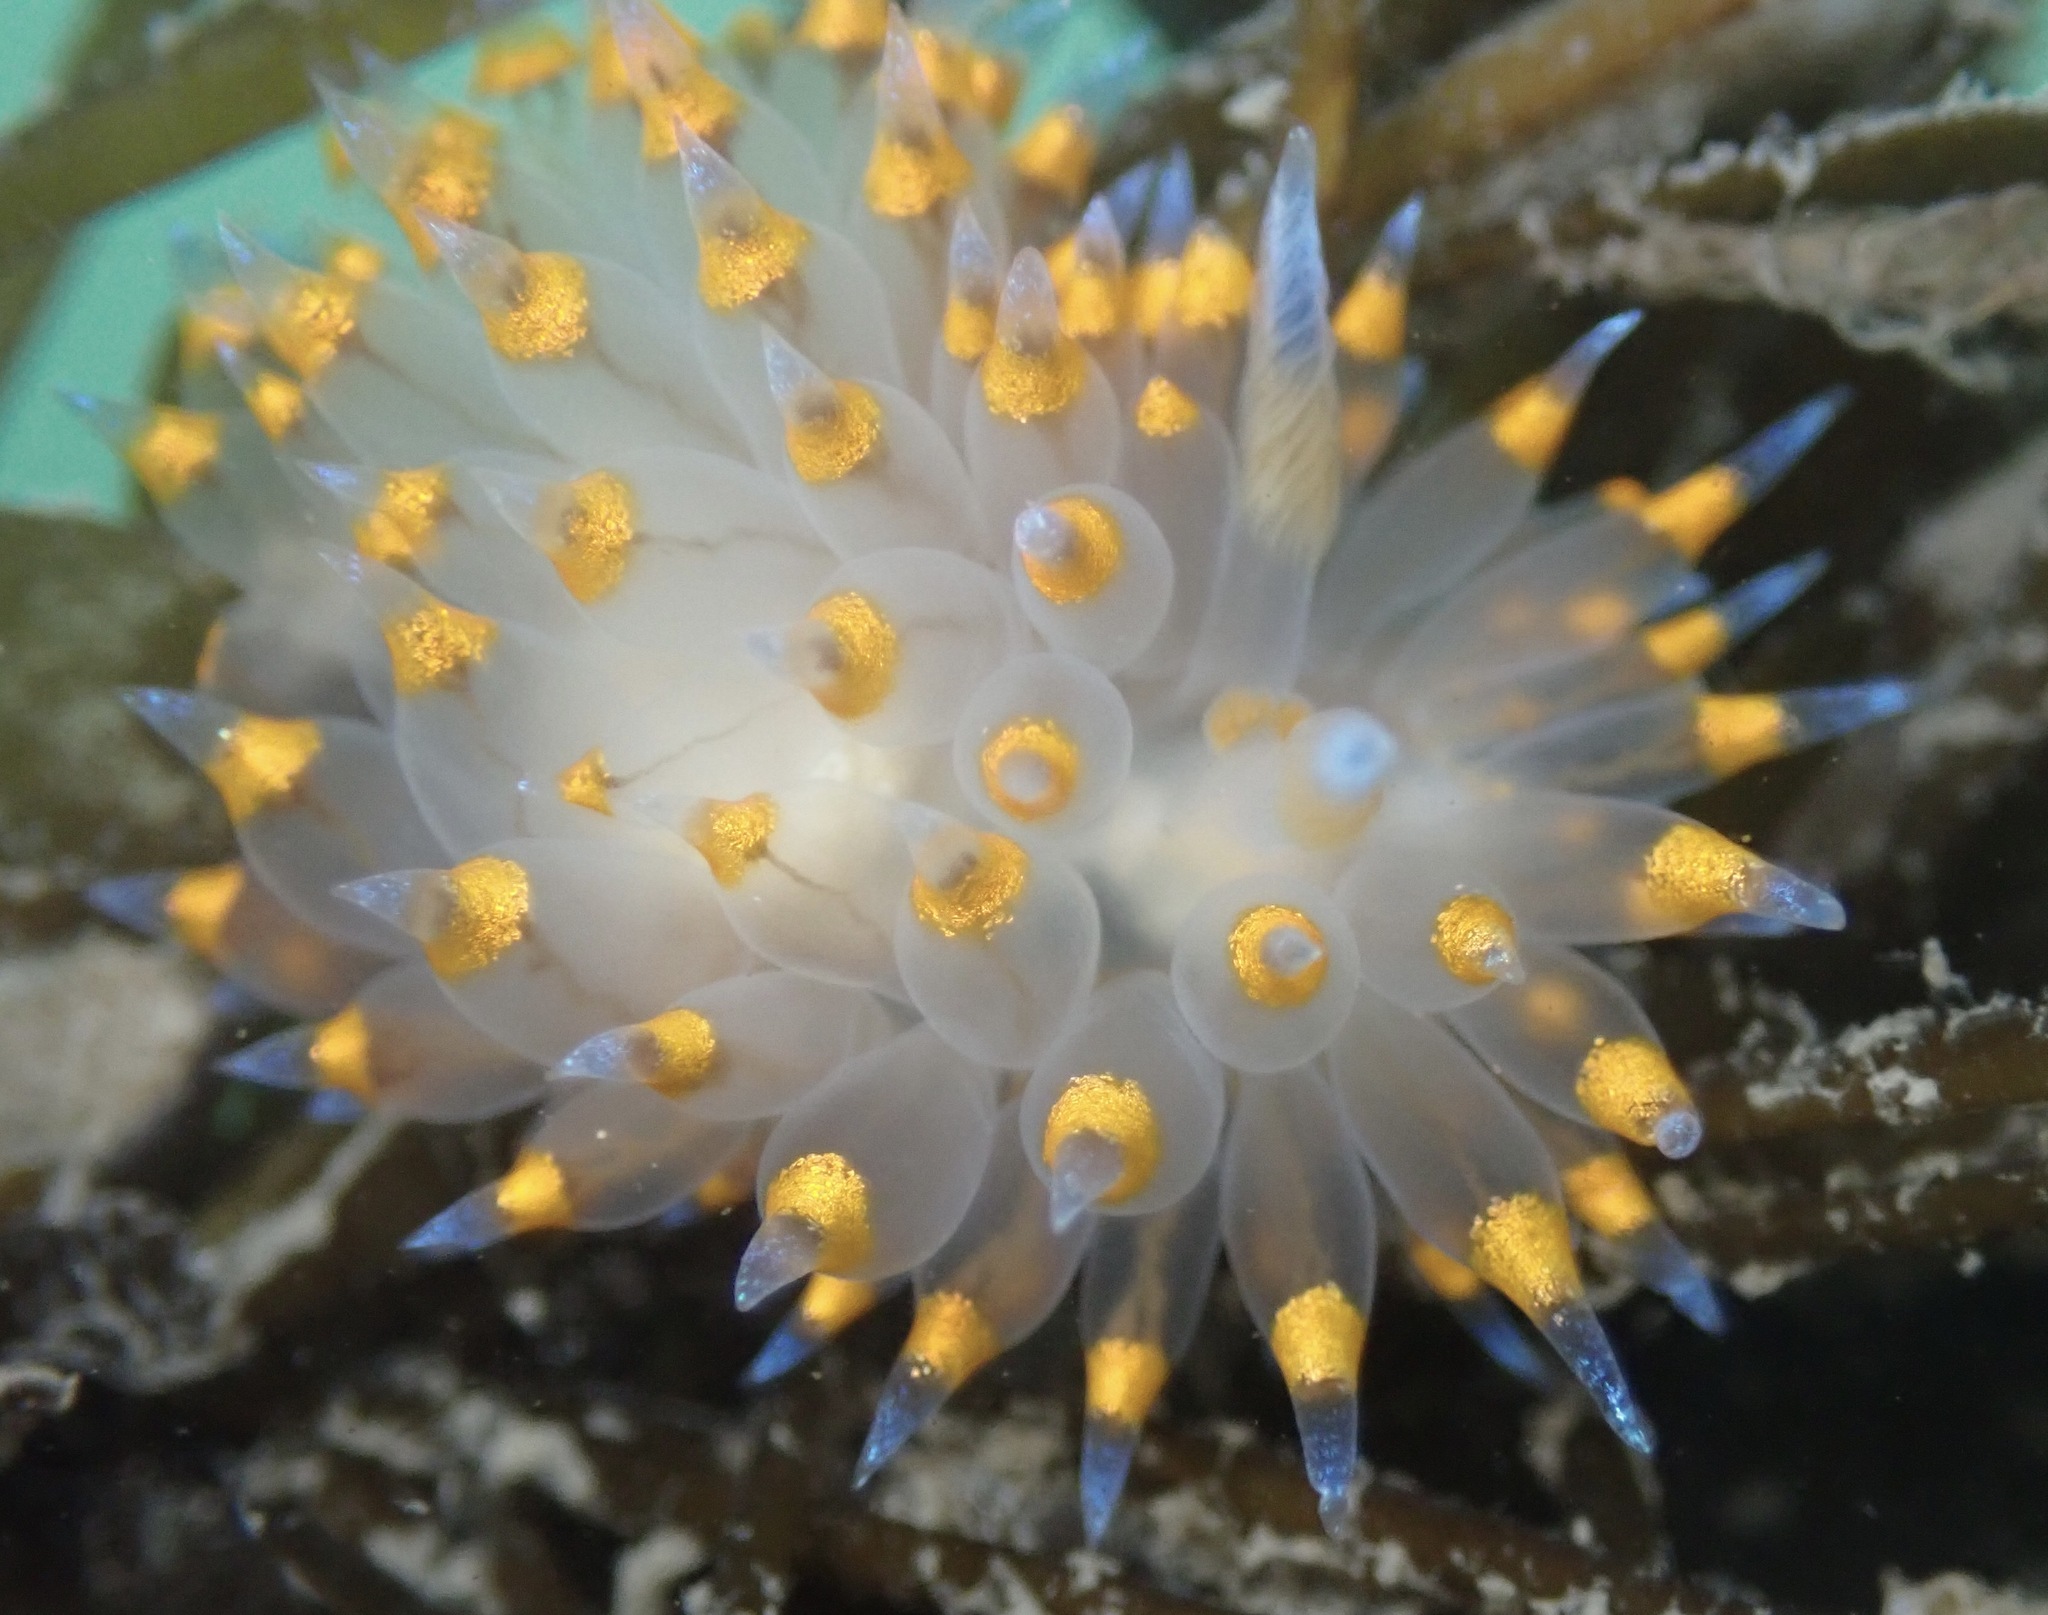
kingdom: Animalia
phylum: Mollusca
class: Gastropoda
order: Nudibranchia
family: Janolidae
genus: Antiopella
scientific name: Antiopella barbarensis
